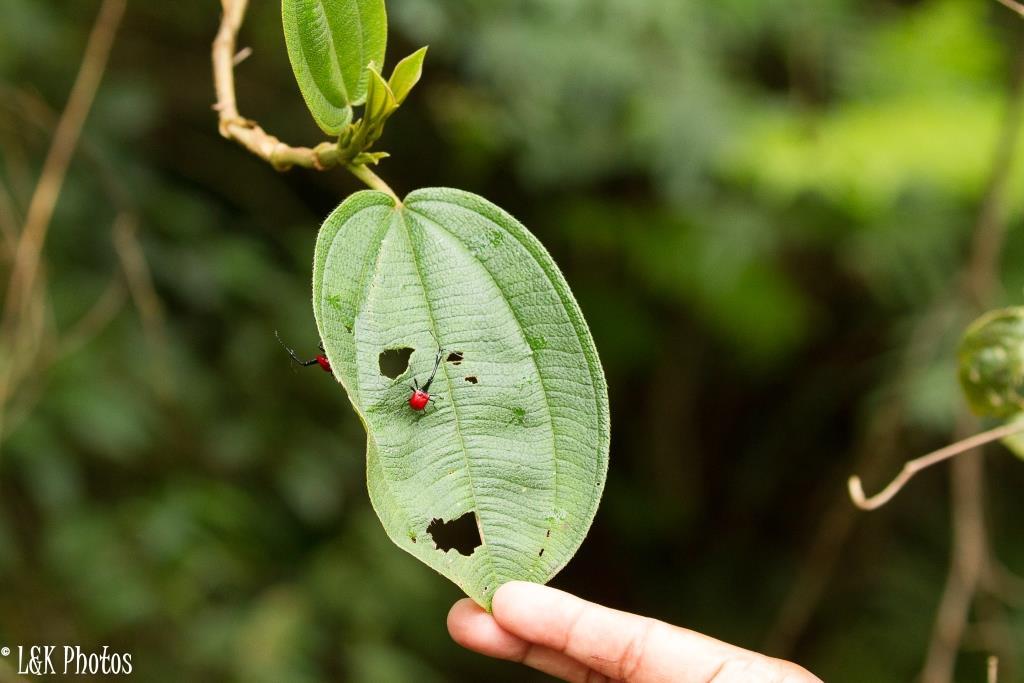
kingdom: Plantae
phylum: Tracheophyta
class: Magnoliopsida
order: Myrtales
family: Melastomataceae
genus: Dichaetanthera
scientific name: Dichaetanthera cordifolia
